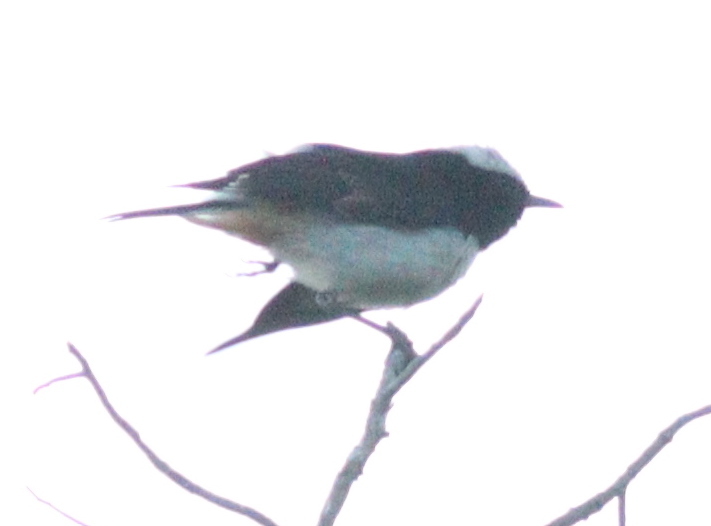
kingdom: Animalia
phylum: Chordata
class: Aves
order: Passeriformes
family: Muscicapidae
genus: Oenanthe
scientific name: Oenanthe lugentoides
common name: Arabian wheatear
